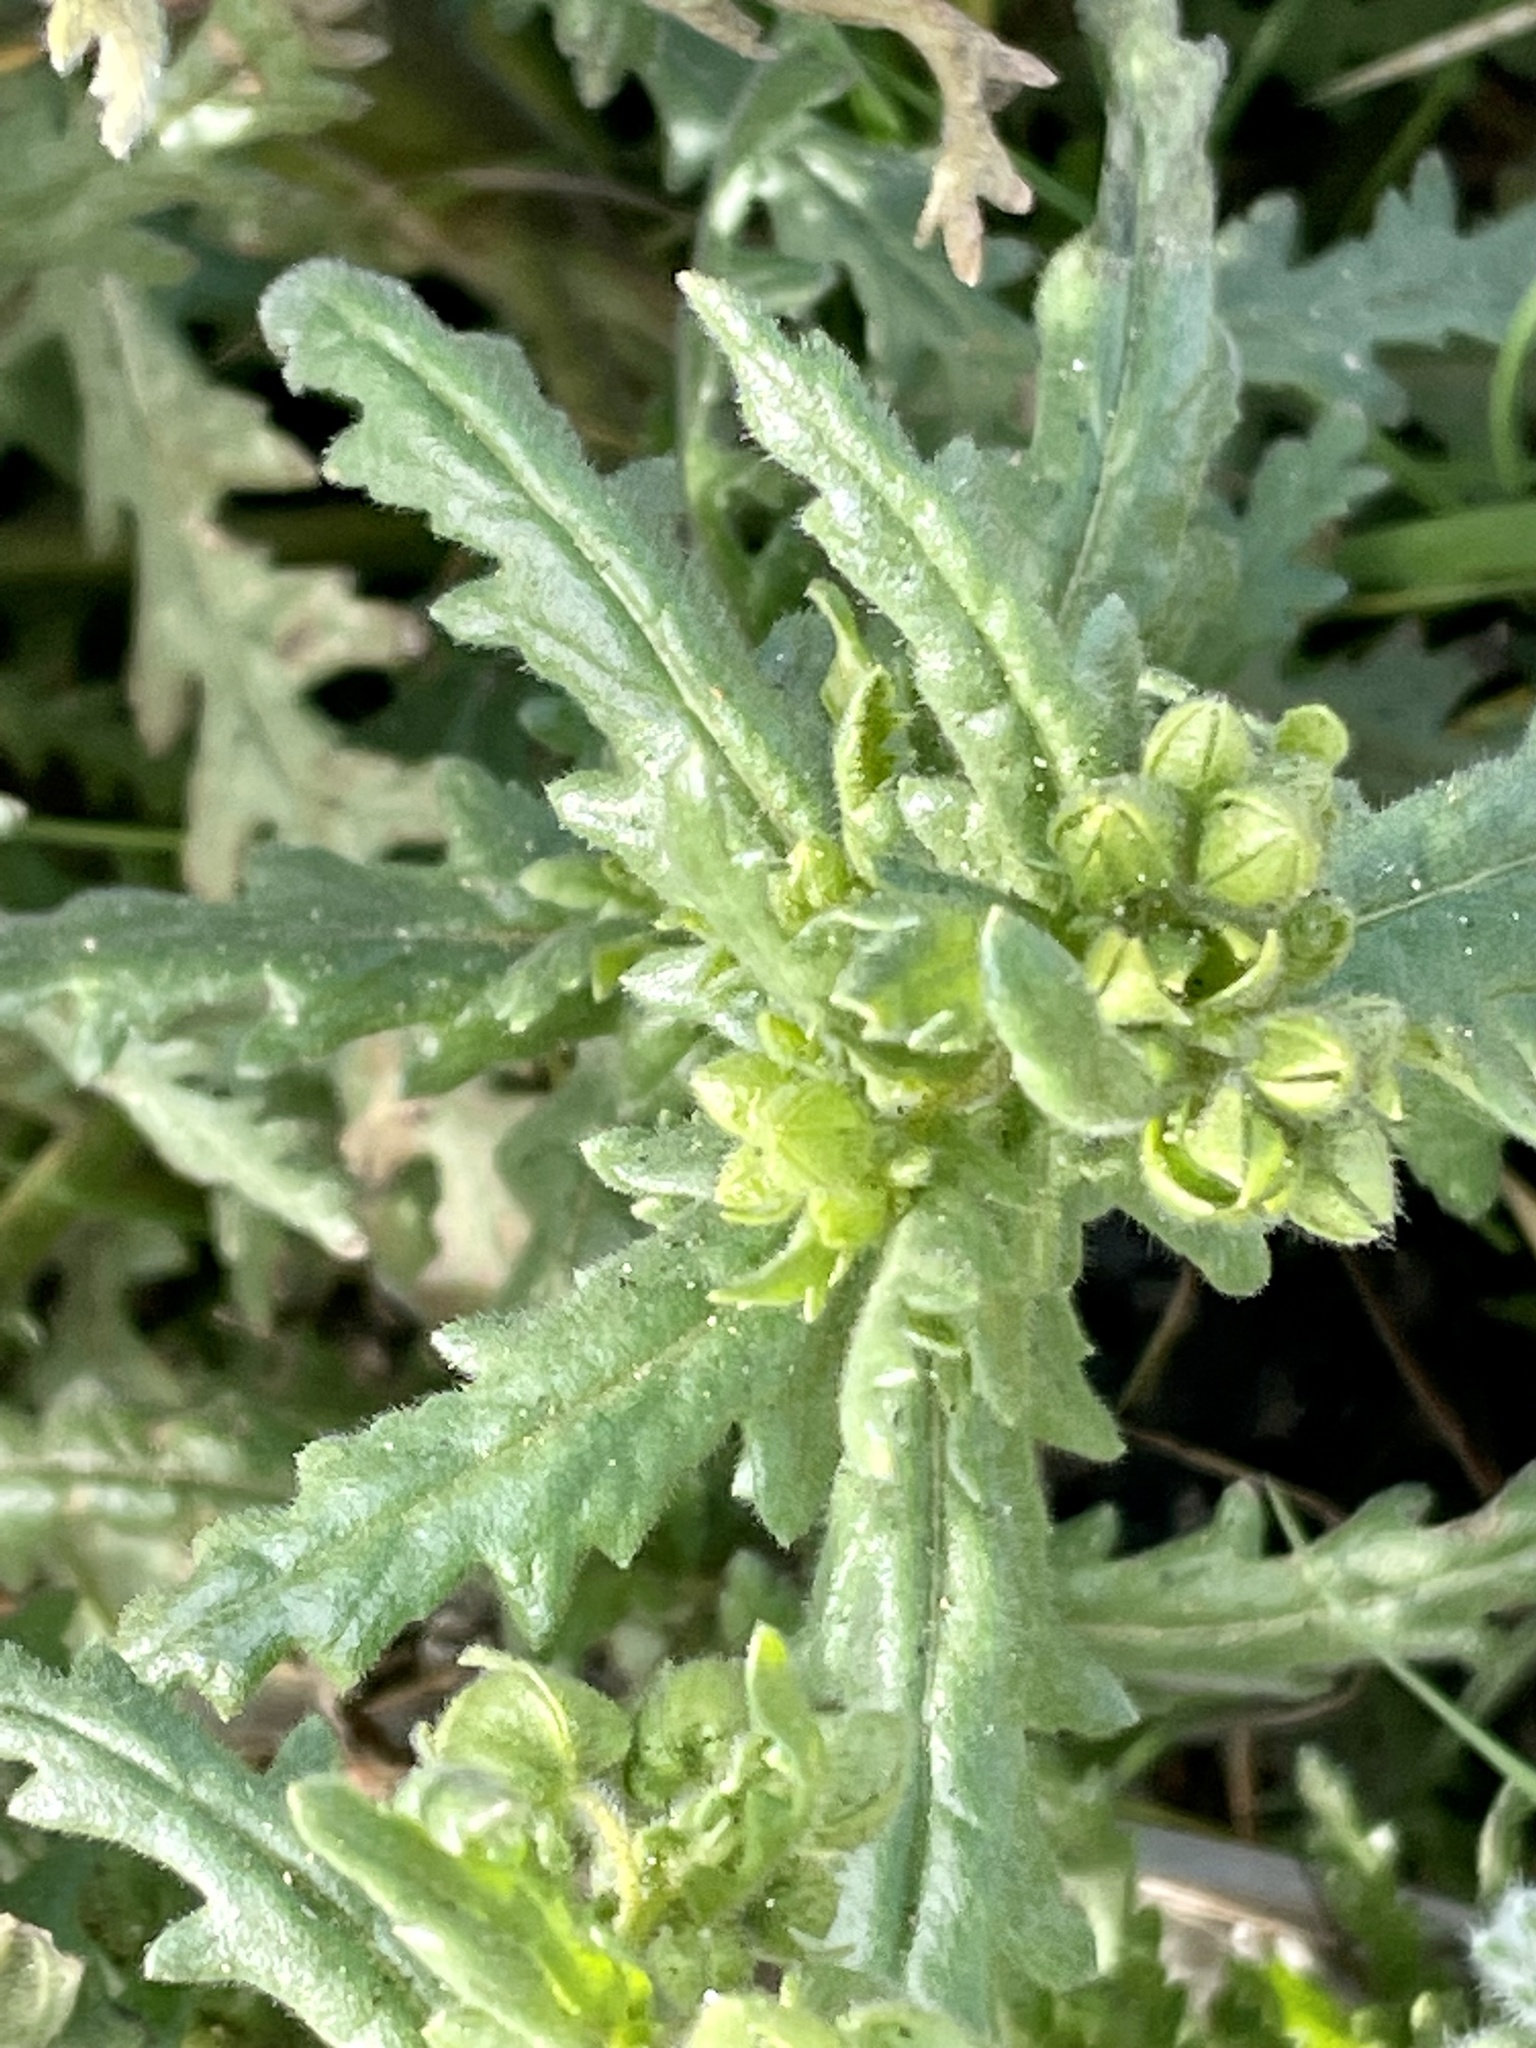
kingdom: Plantae
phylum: Tracheophyta
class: Magnoliopsida
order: Boraginales
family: Hydrophyllaceae
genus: Emmenanthe
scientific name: Emmenanthe penduliflora
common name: Whispering-bells
